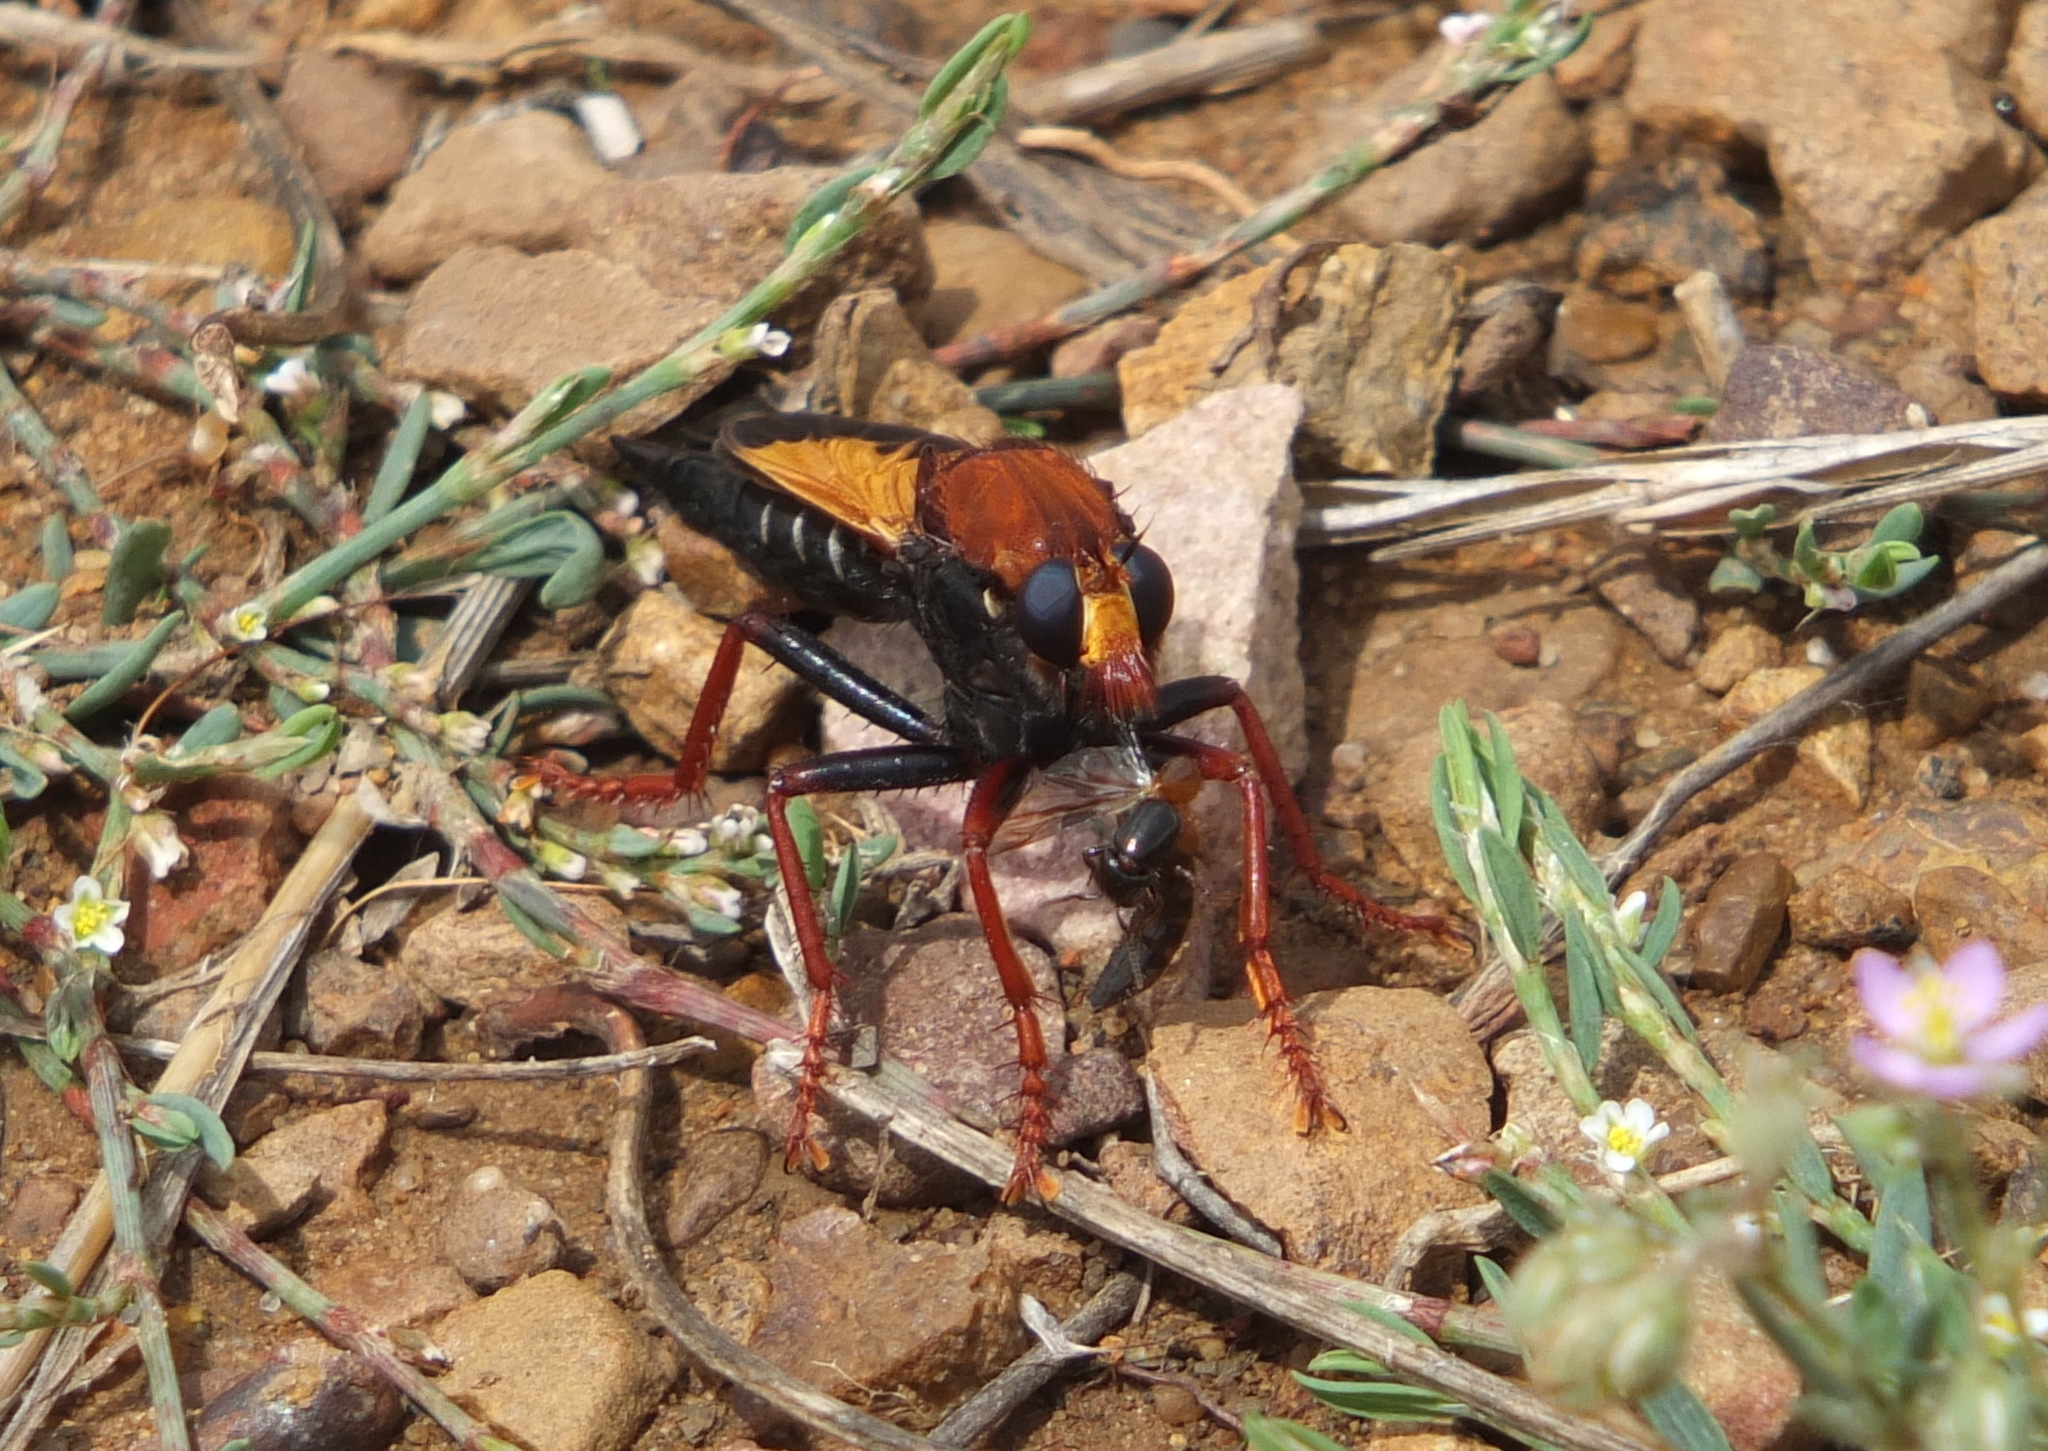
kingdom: Animalia
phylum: Arthropoda
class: Insecta
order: Diptera
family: Asilidae
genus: Asilus
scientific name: Asilus barbarus
